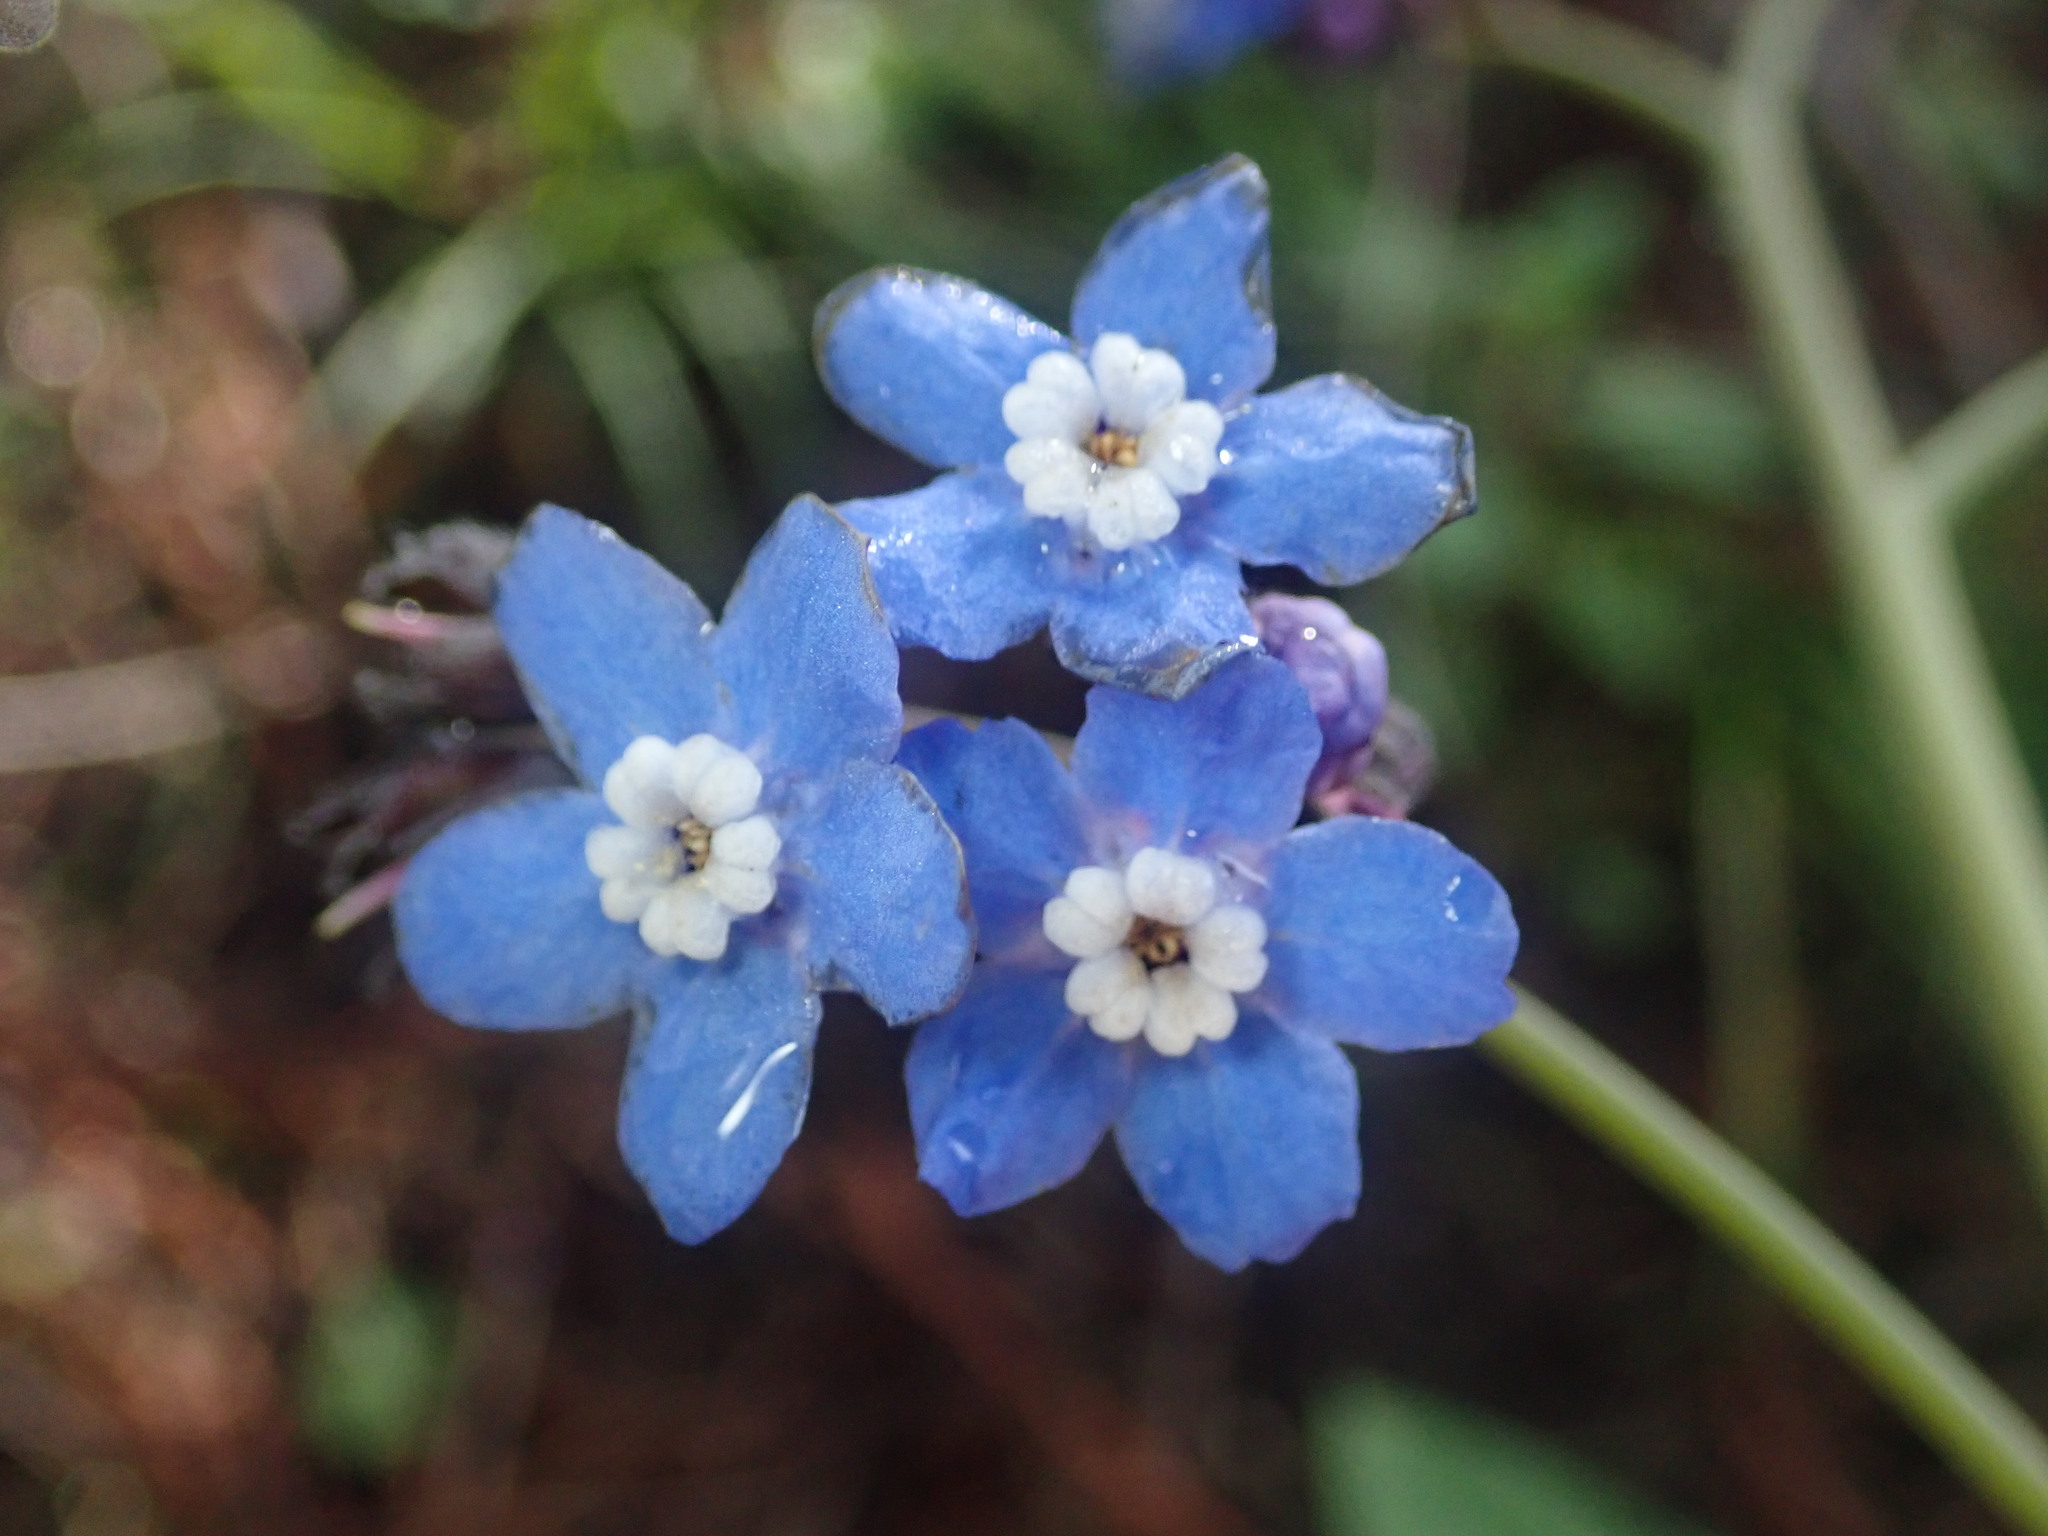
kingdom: Plantae
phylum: Tracheophyta
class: Magnoliopsida
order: Boraginales
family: Boraginaceae
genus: Adelinia
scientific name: Adelinia grande
